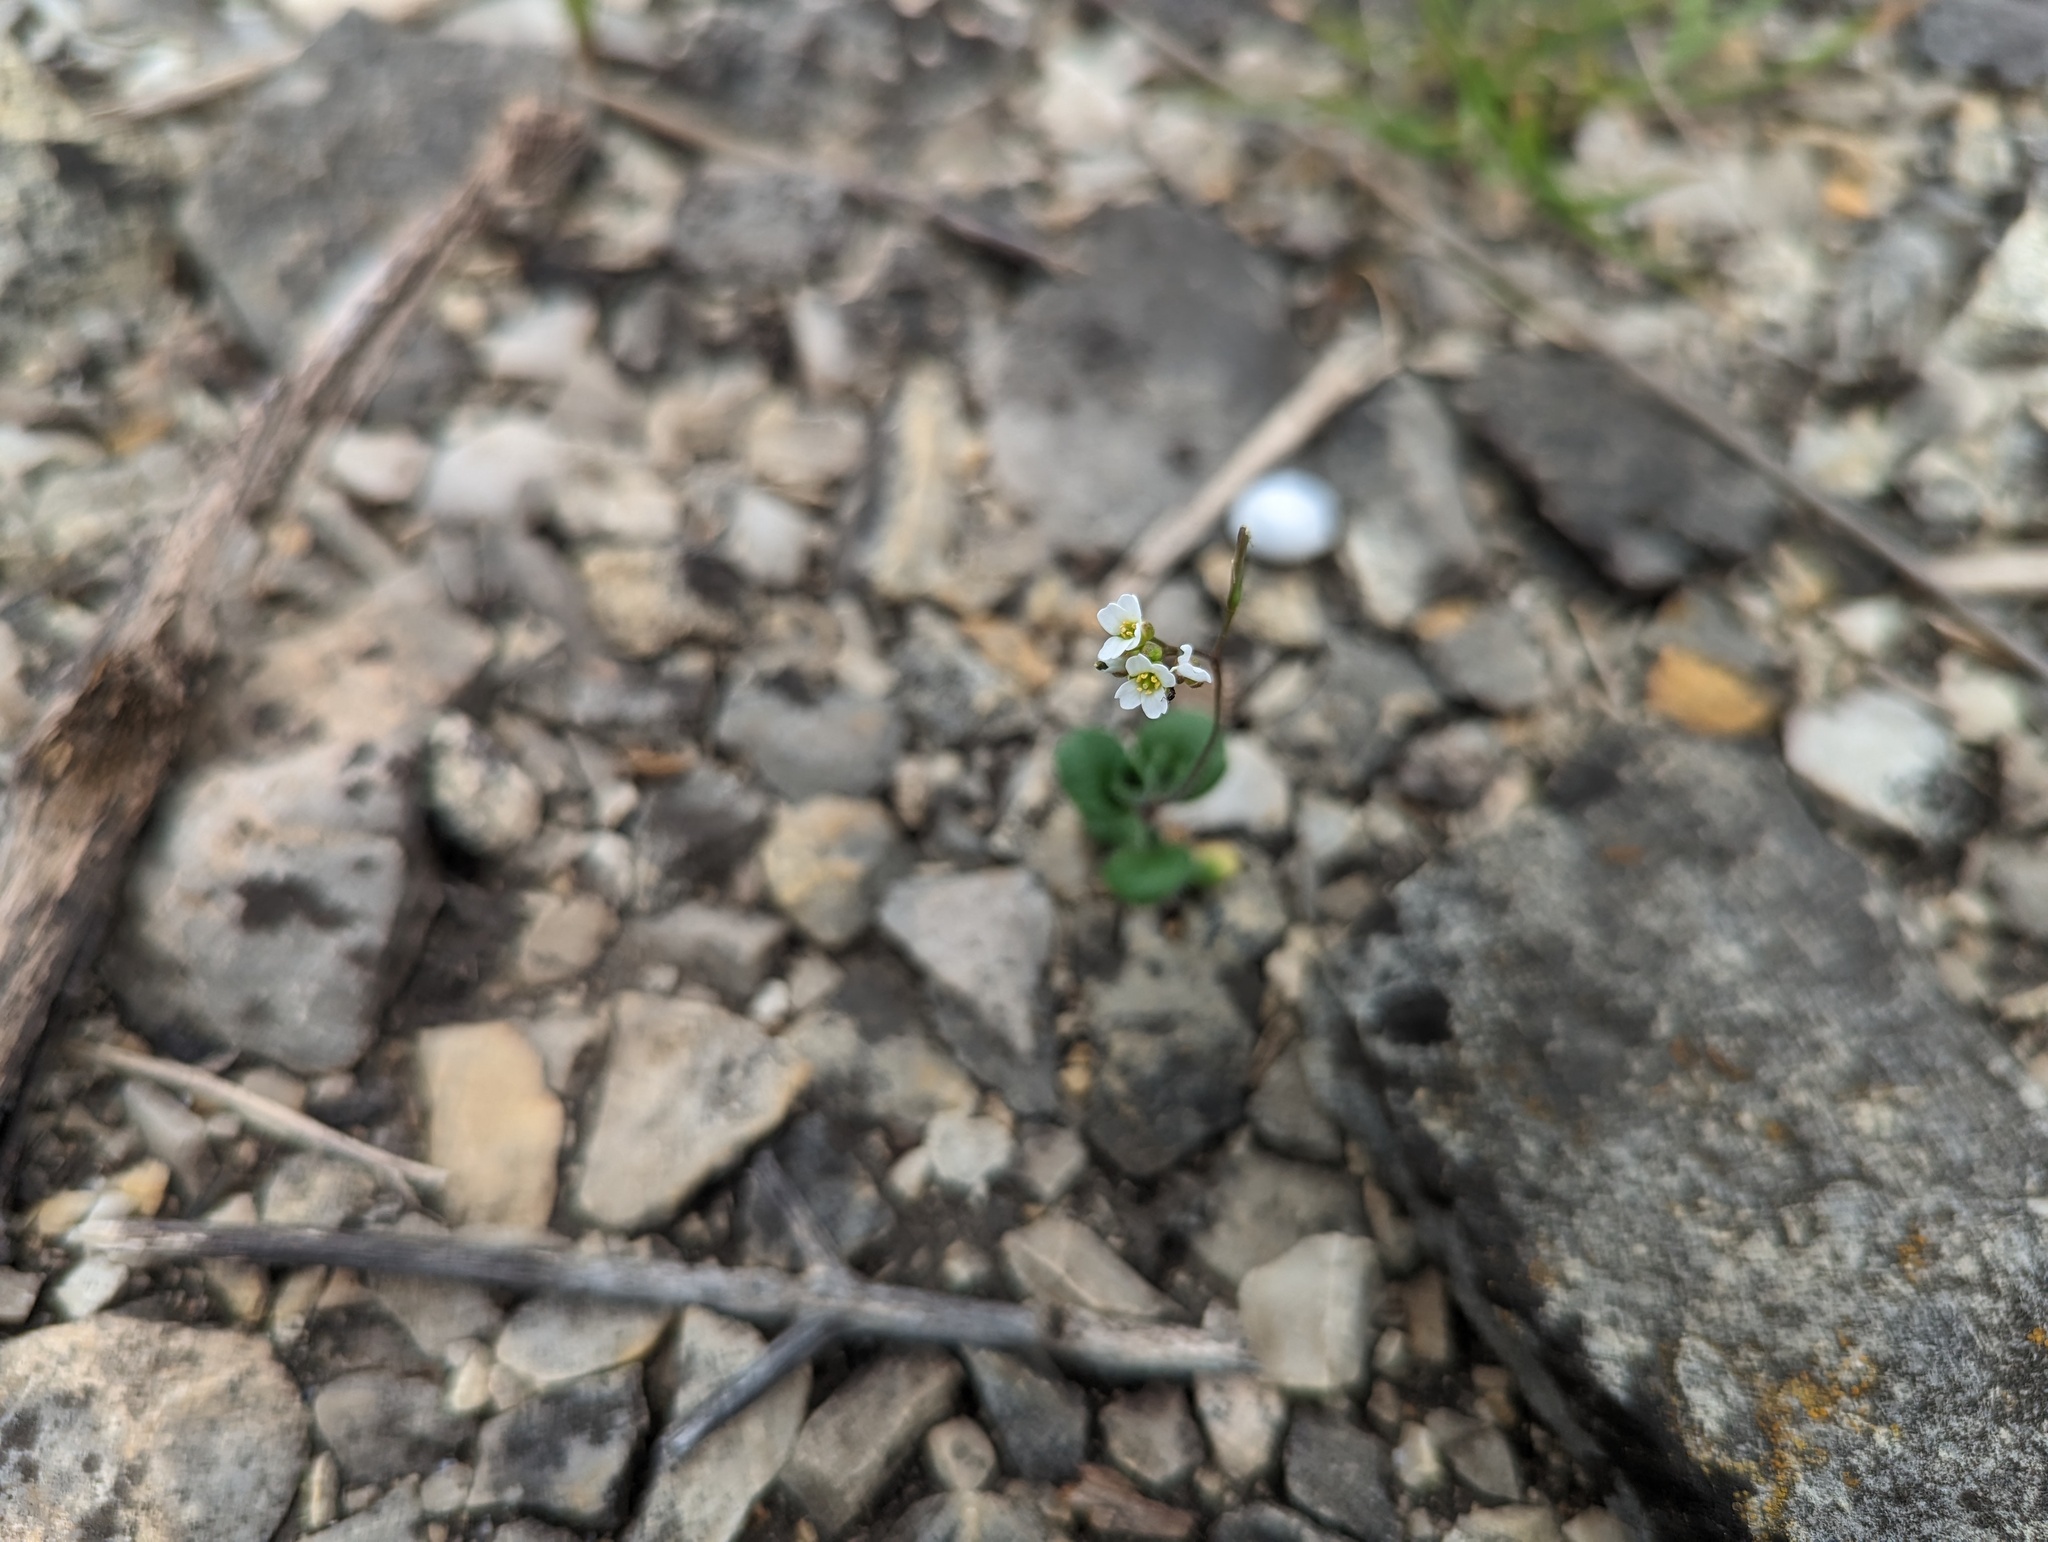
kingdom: Plantae
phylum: Tracheophyta
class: Magnoliopsida
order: Brassicales
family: Brassicaceae
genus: Tomostima
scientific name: Tomostima reptans
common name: Carolina draba
